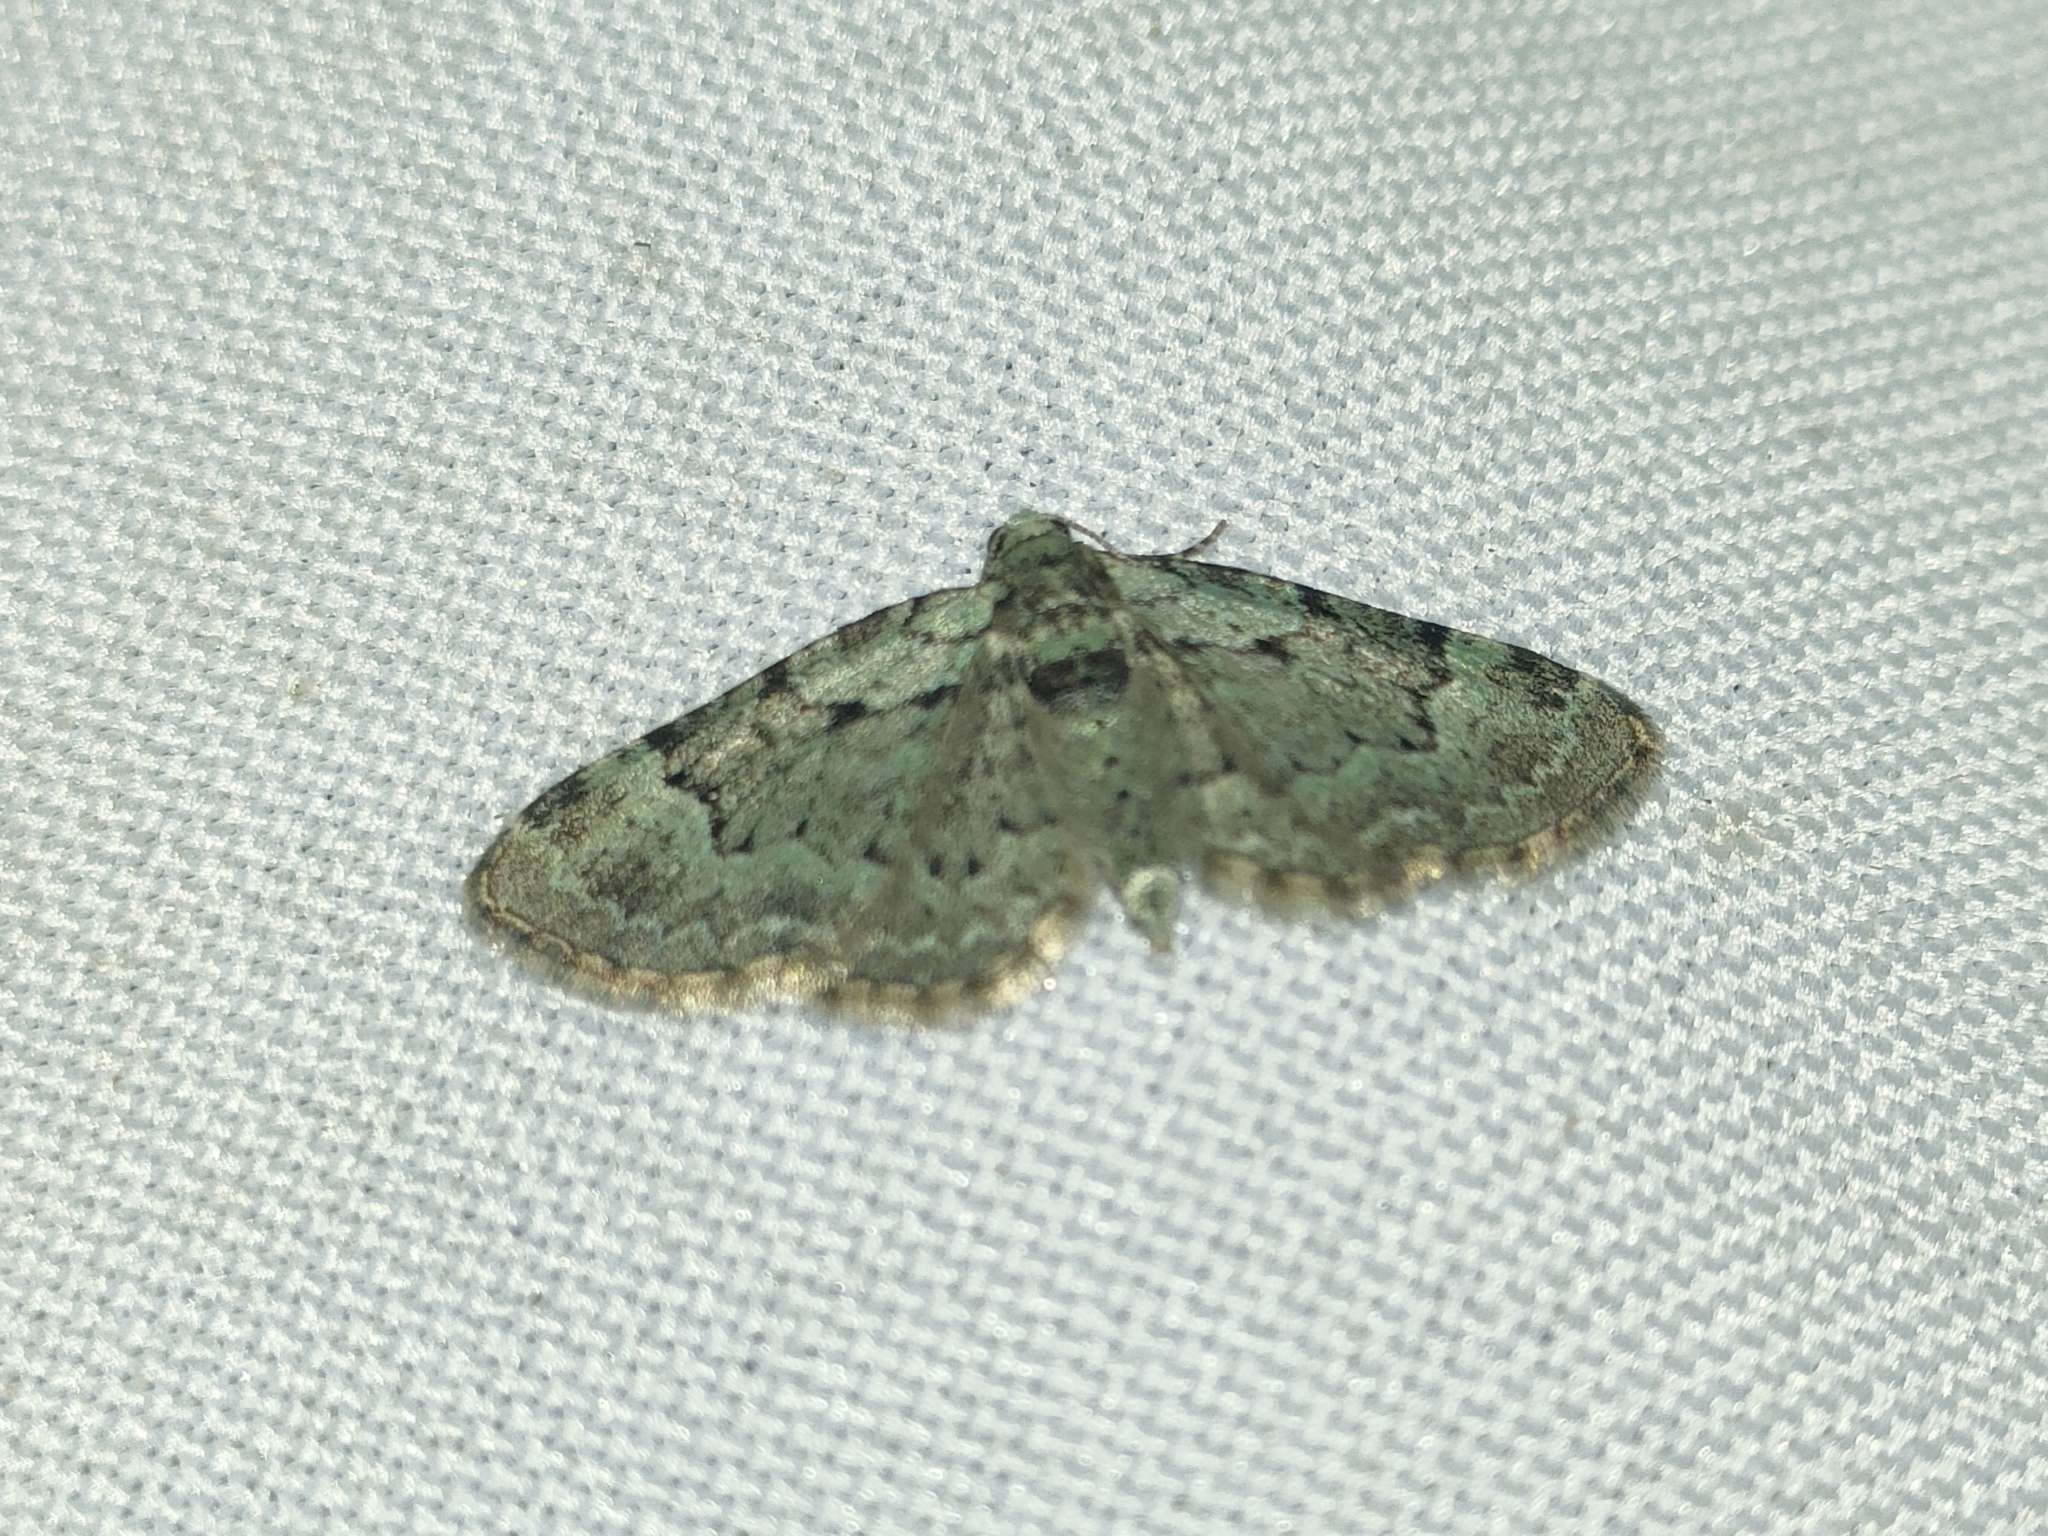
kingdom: Animalia
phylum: Arthropoda
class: Insecta
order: Lepidoptera
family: Geometridae
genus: Pasiphila
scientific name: Pasiphila rectangulata
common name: Green pug
